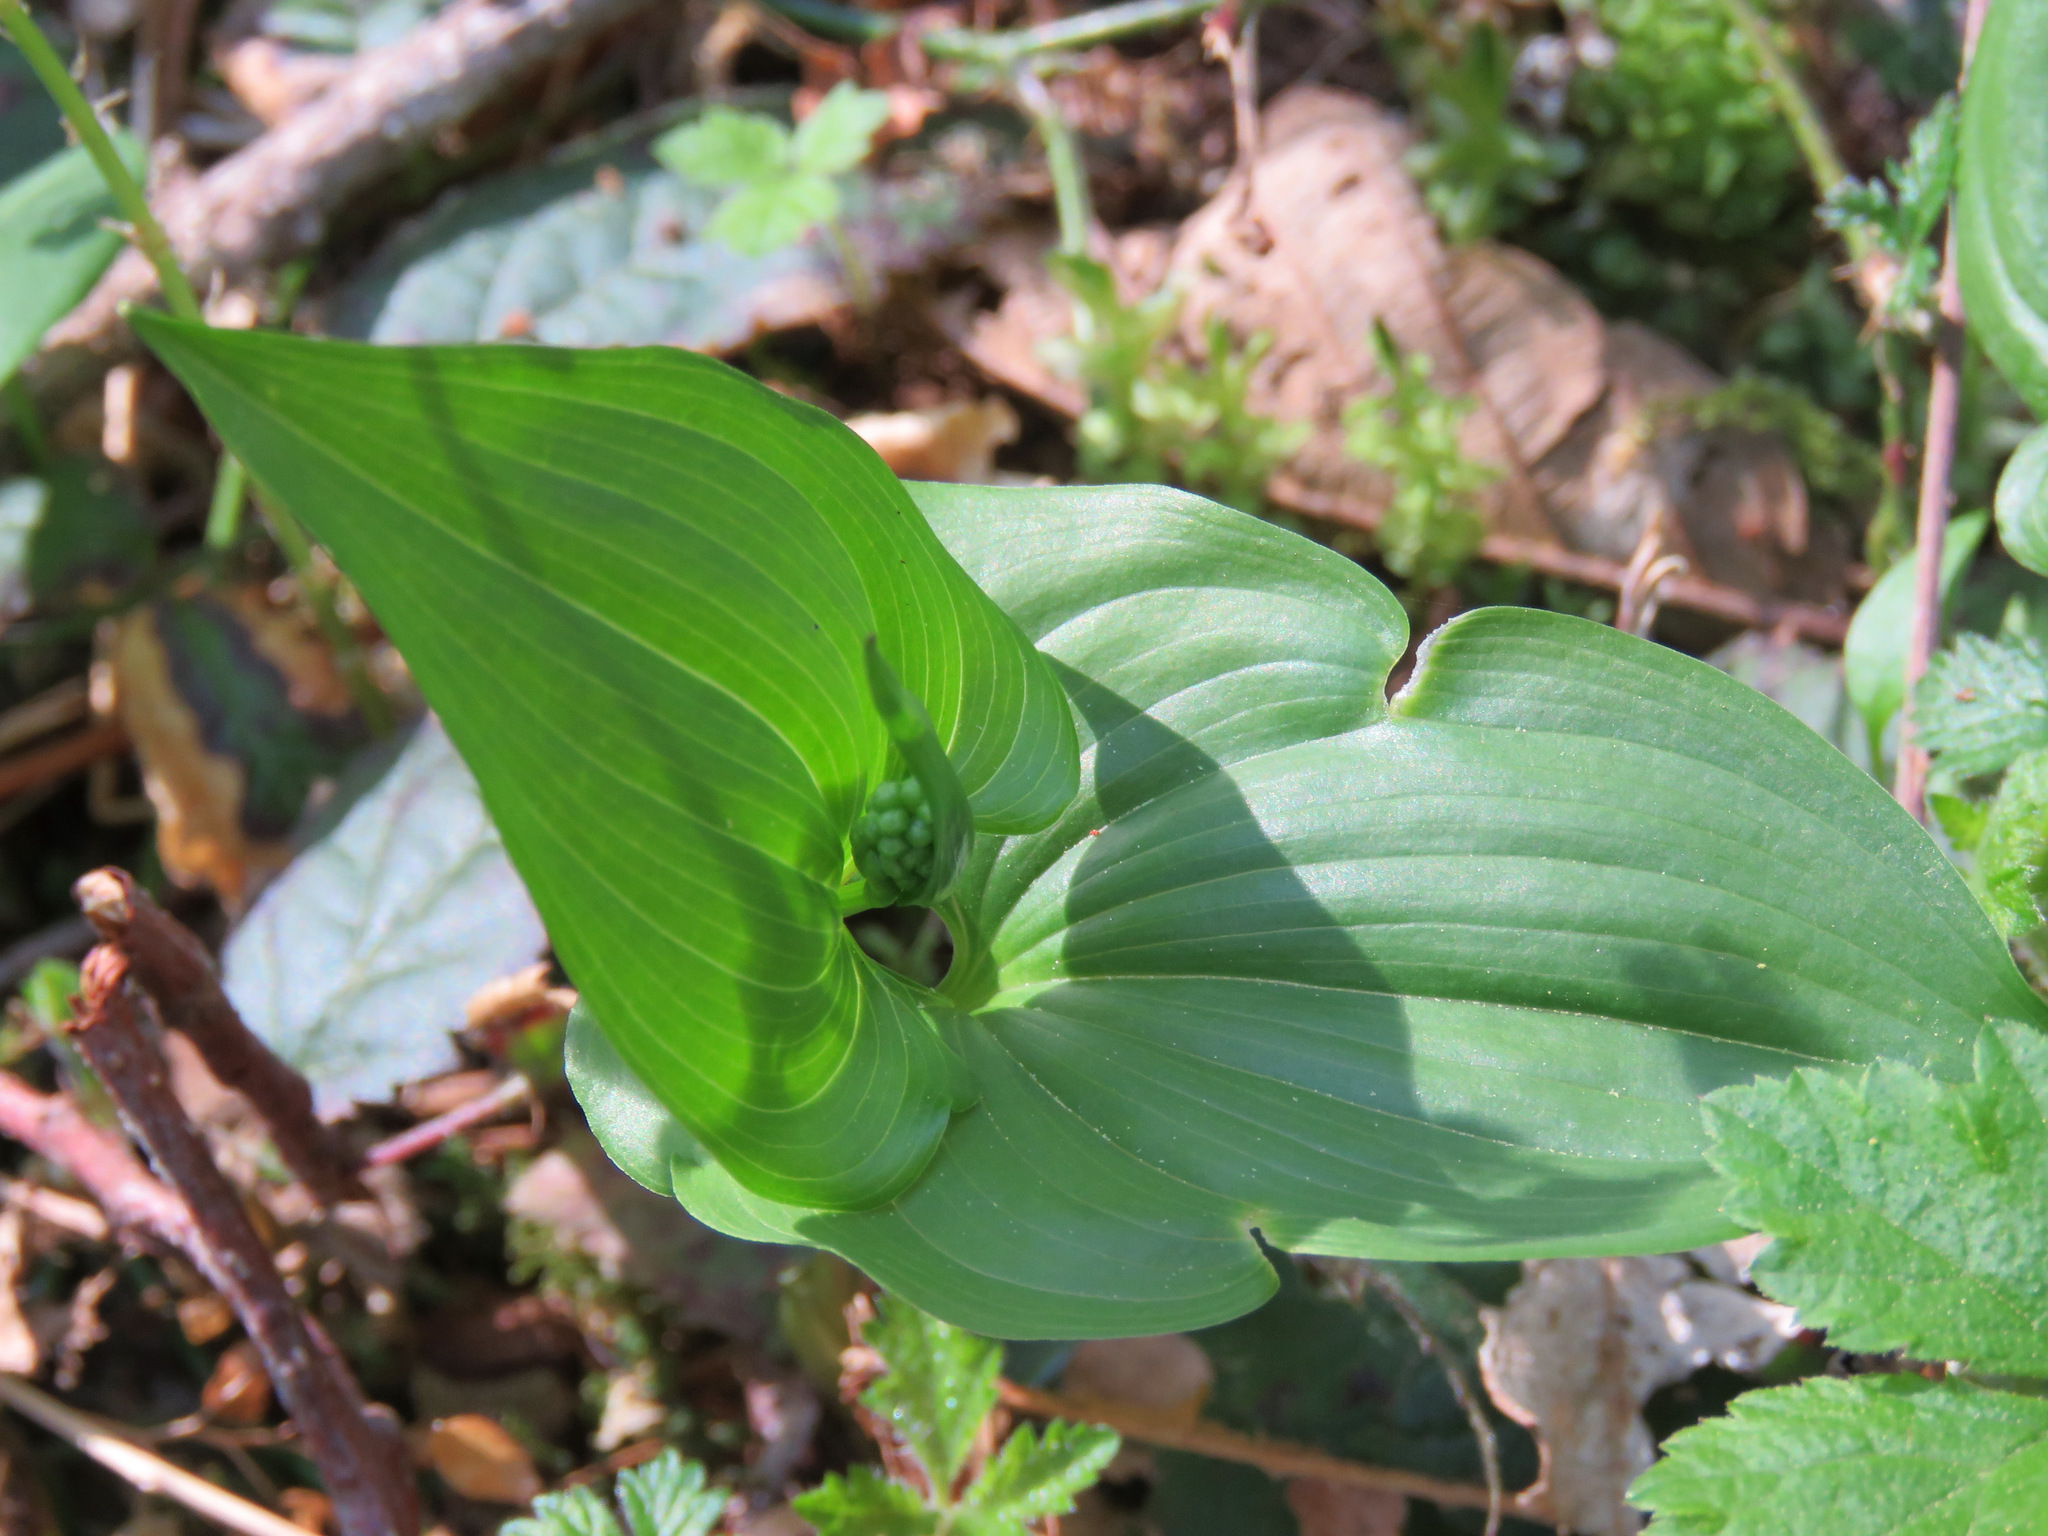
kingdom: Plantae
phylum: Tracheophyta
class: Liliopsida
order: Asparagales
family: Asparagaceae
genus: Maianthemum
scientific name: Maianthemum dilatatum
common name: False lily-of-the-valley
